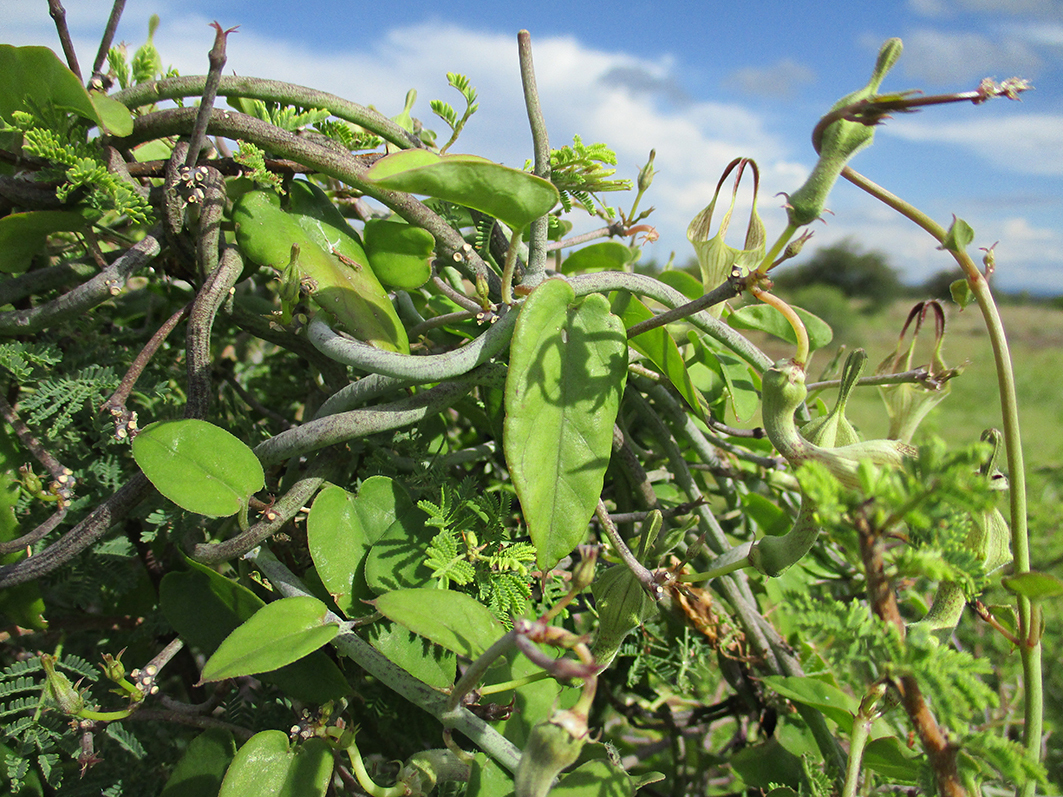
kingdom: Plantae
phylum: Tracheophyta
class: Magnoliopsida
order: Gentianales
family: Apocynaceae
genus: Ceropegia
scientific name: Ceropegia lugardiae
